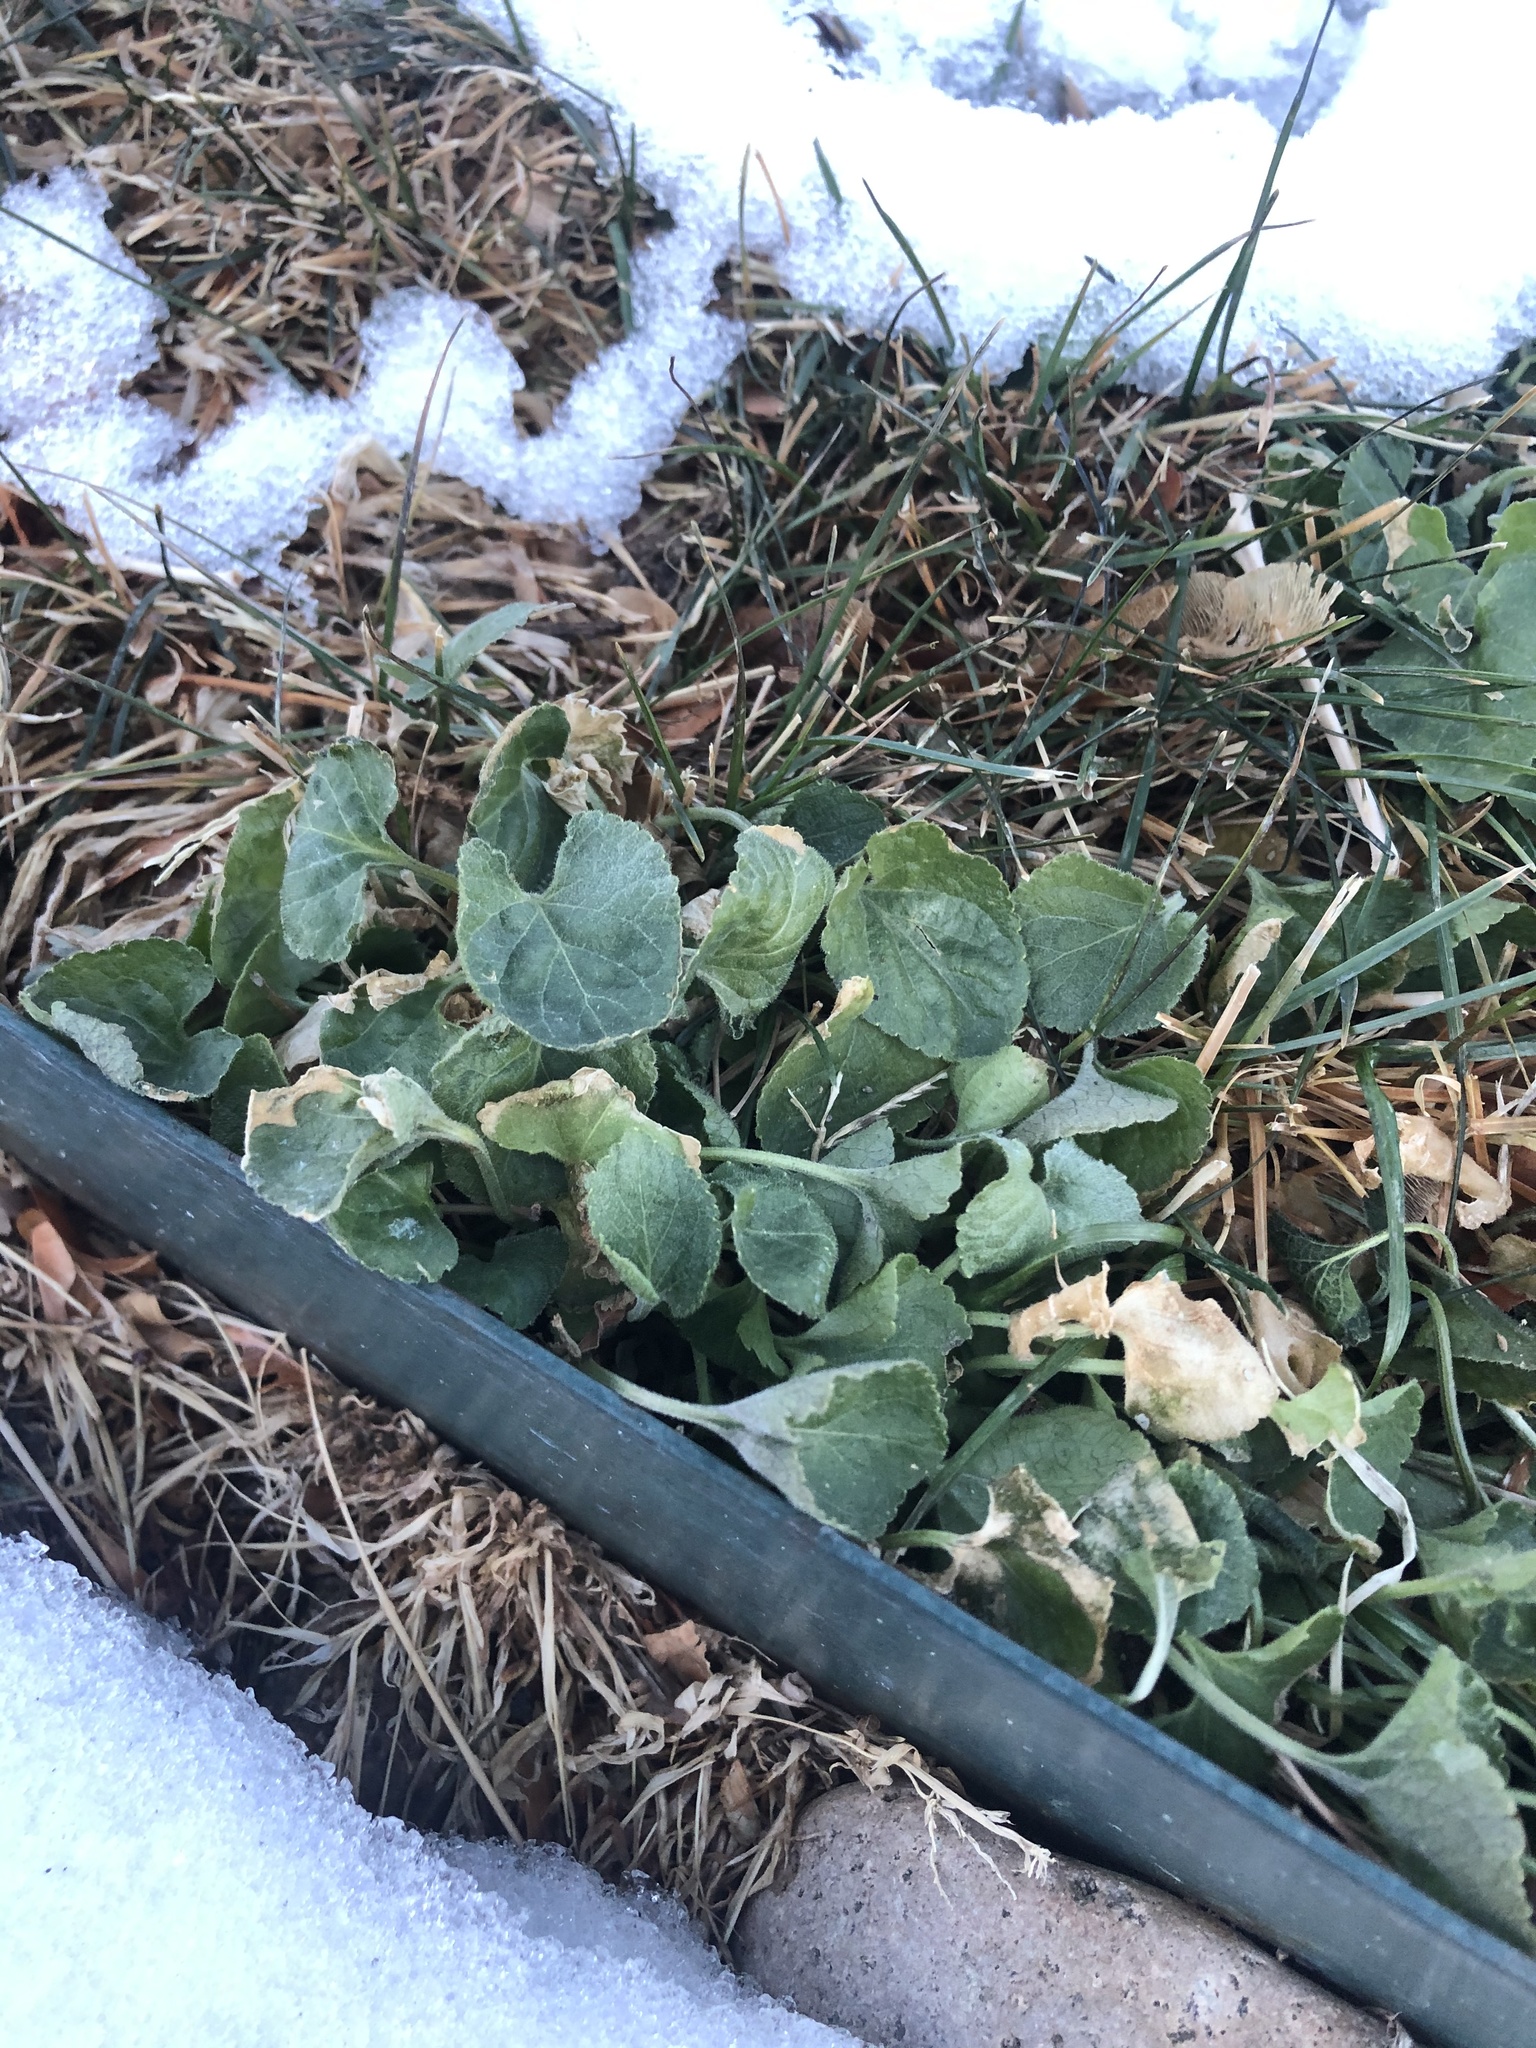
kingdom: Plantae
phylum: Tracheophyta
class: Magnoliopsida
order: Malpighiales
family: Violaceae
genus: Viola
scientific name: Viola odorata
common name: Sweet violet
